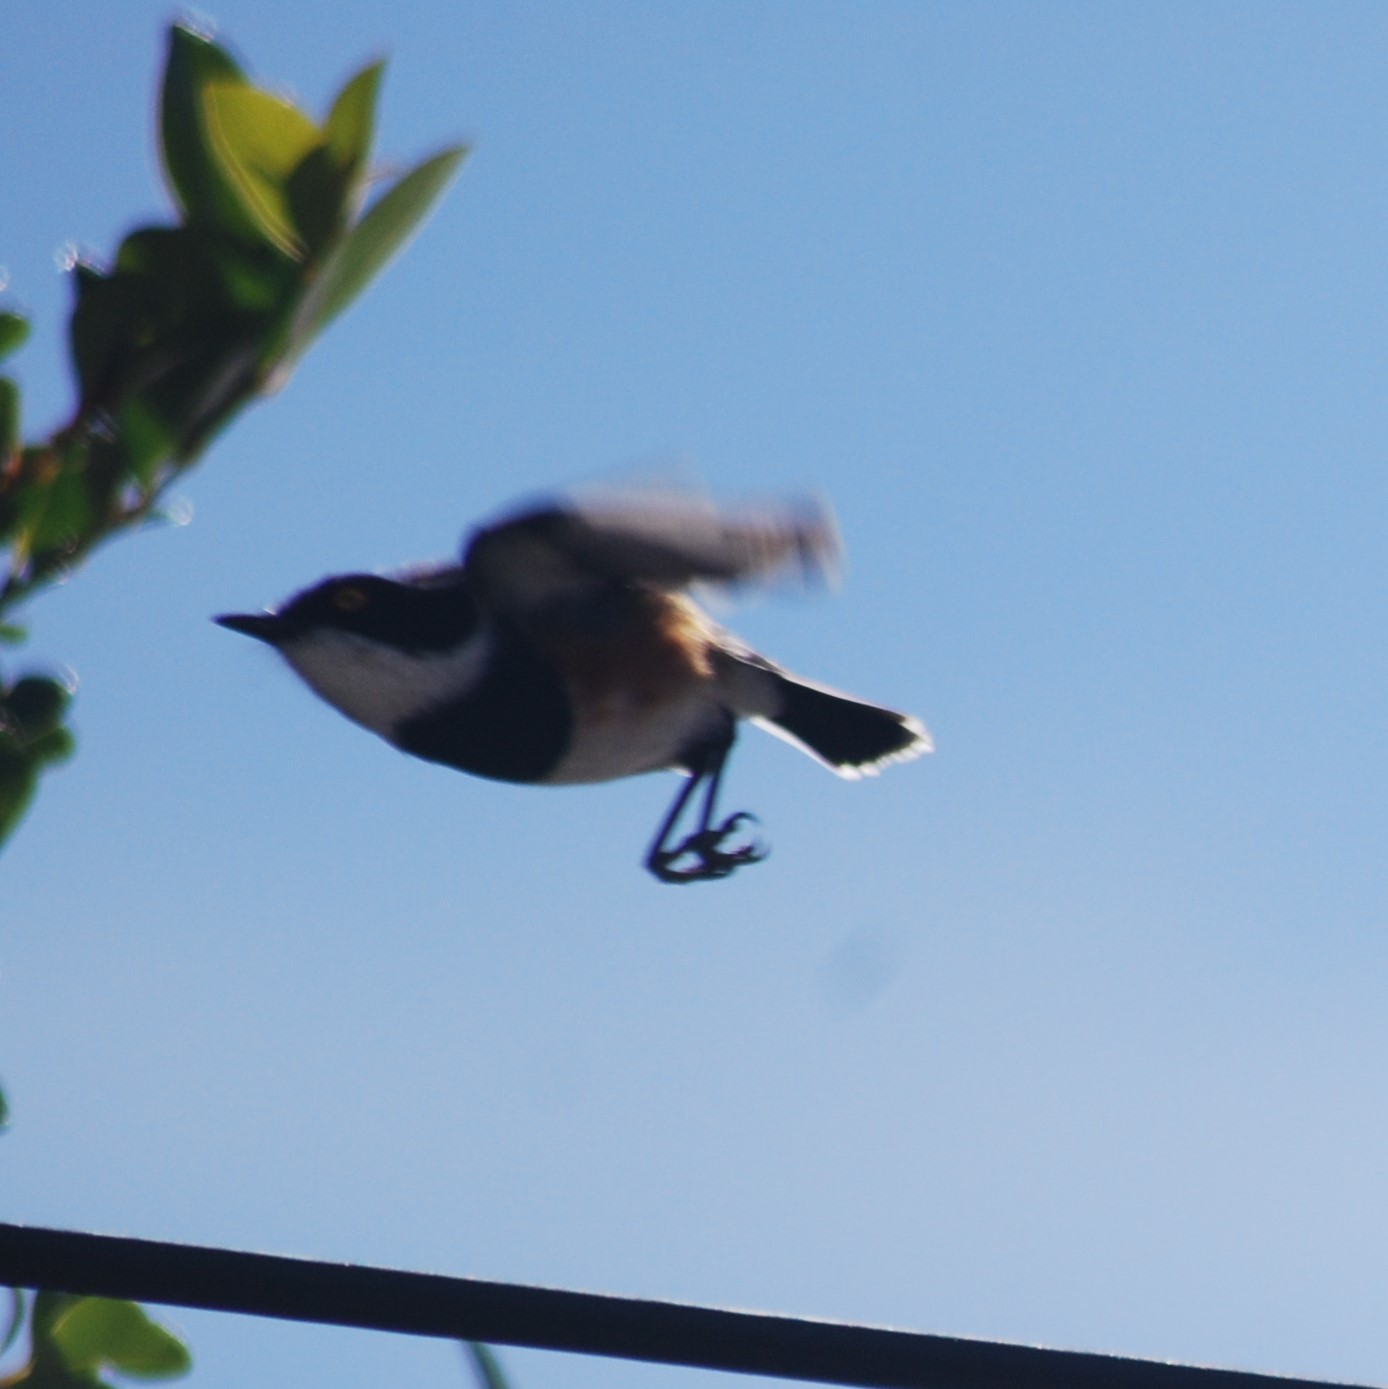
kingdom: Animalia
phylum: Chordata
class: Aves
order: Passeriformes
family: Platysteiridae
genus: Batis
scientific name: Batis capensis
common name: Cape batis
